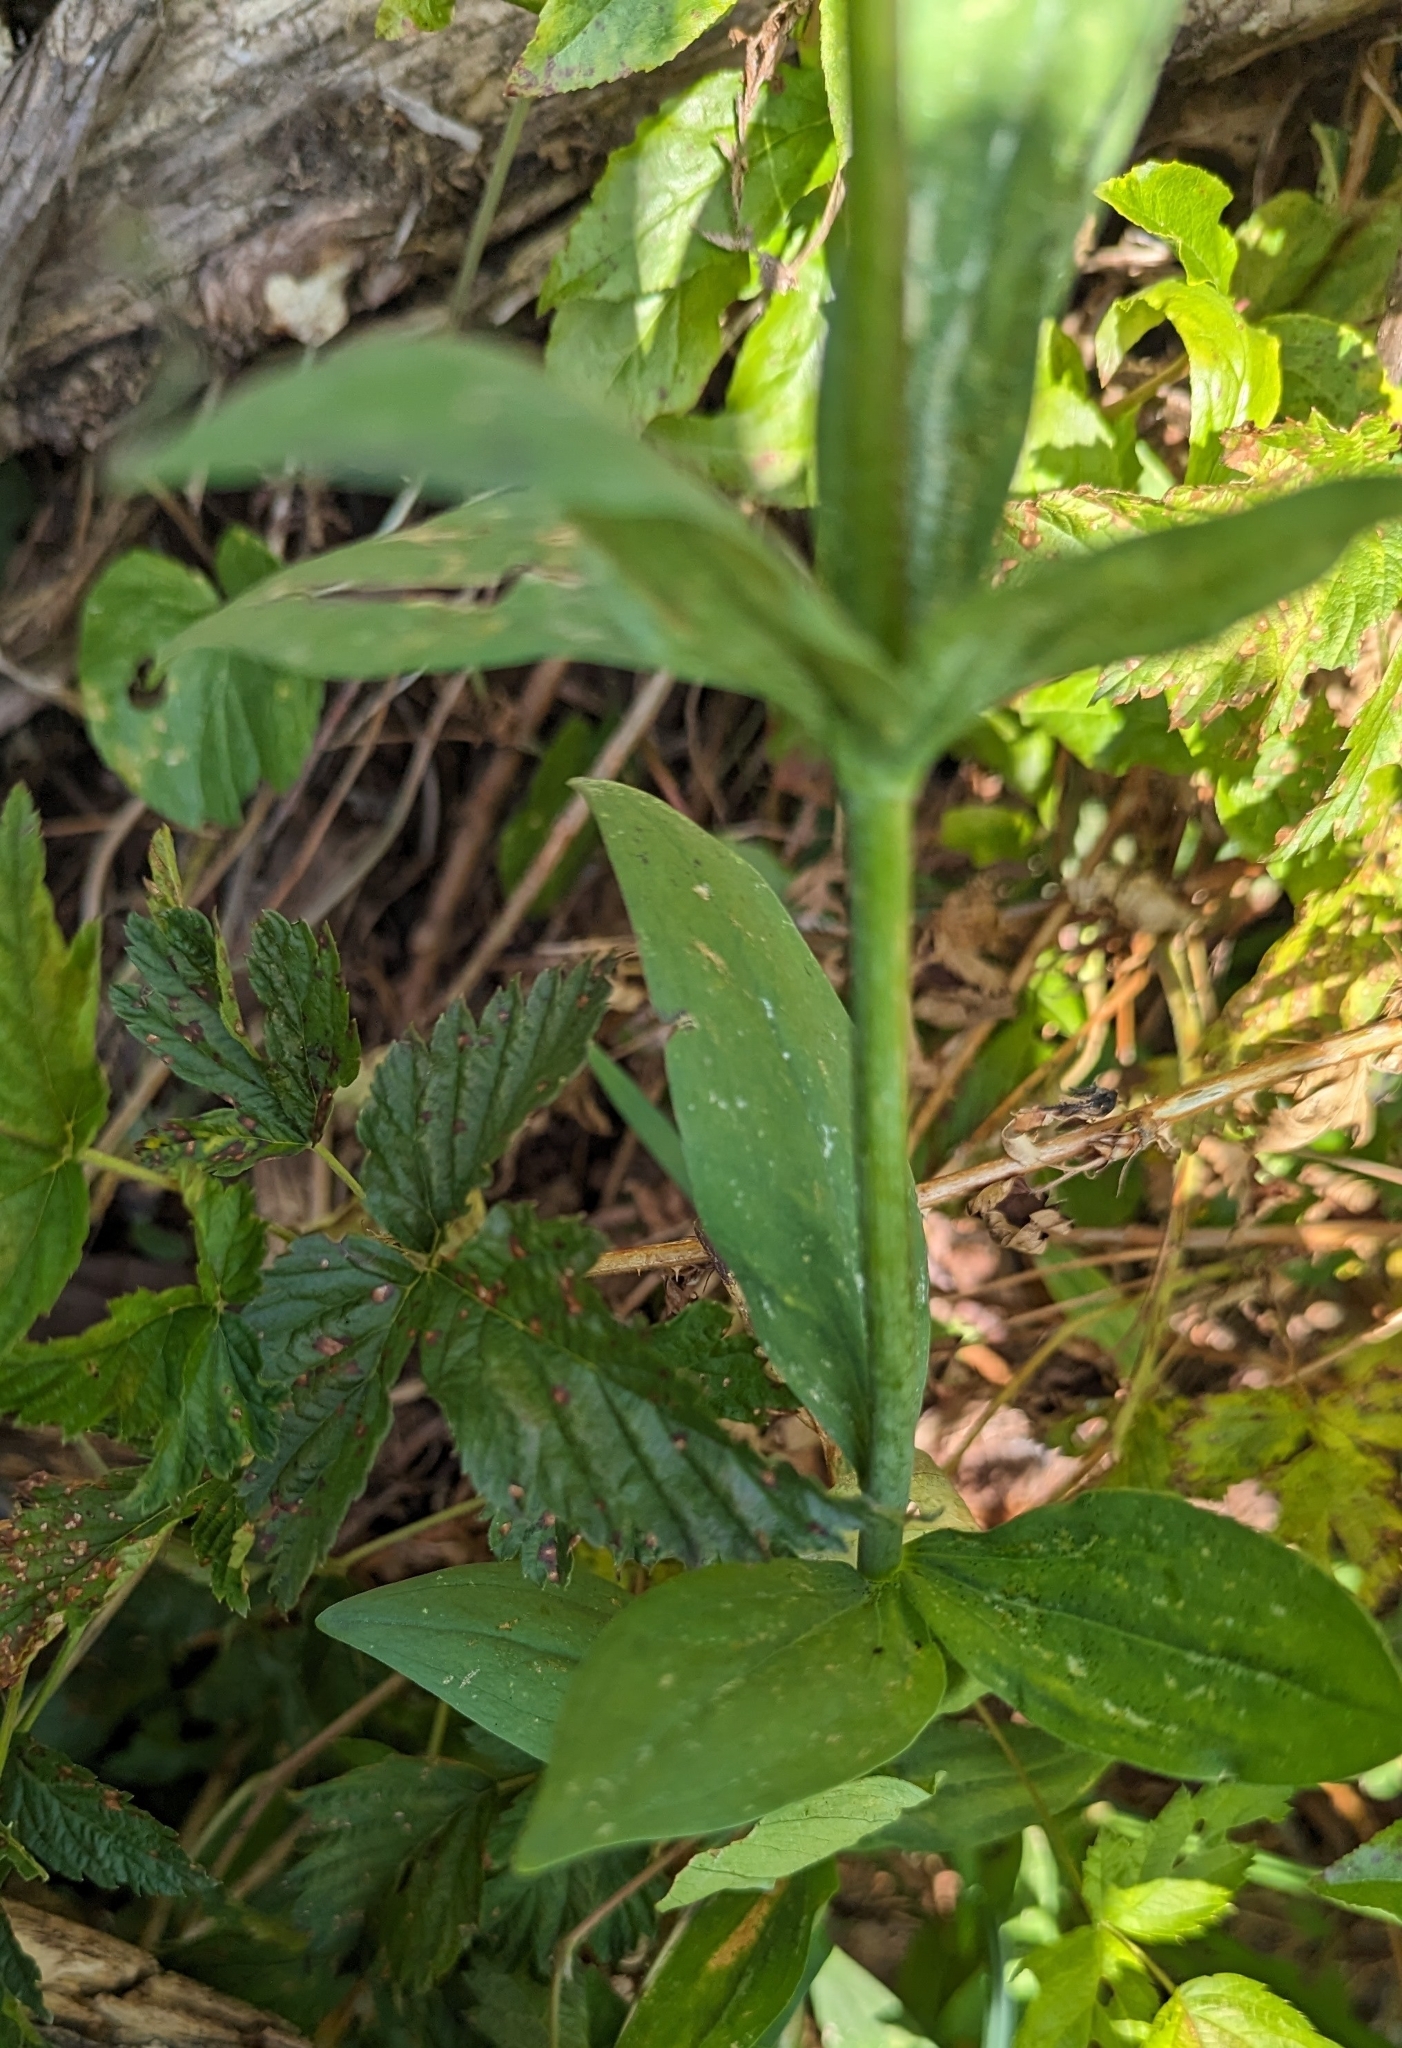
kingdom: Plantae
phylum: Tracheophyta
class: Liliopsida
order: Liliales
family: Liliaceae
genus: Lilium
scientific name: Lilium columbianum
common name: Columbia lily
